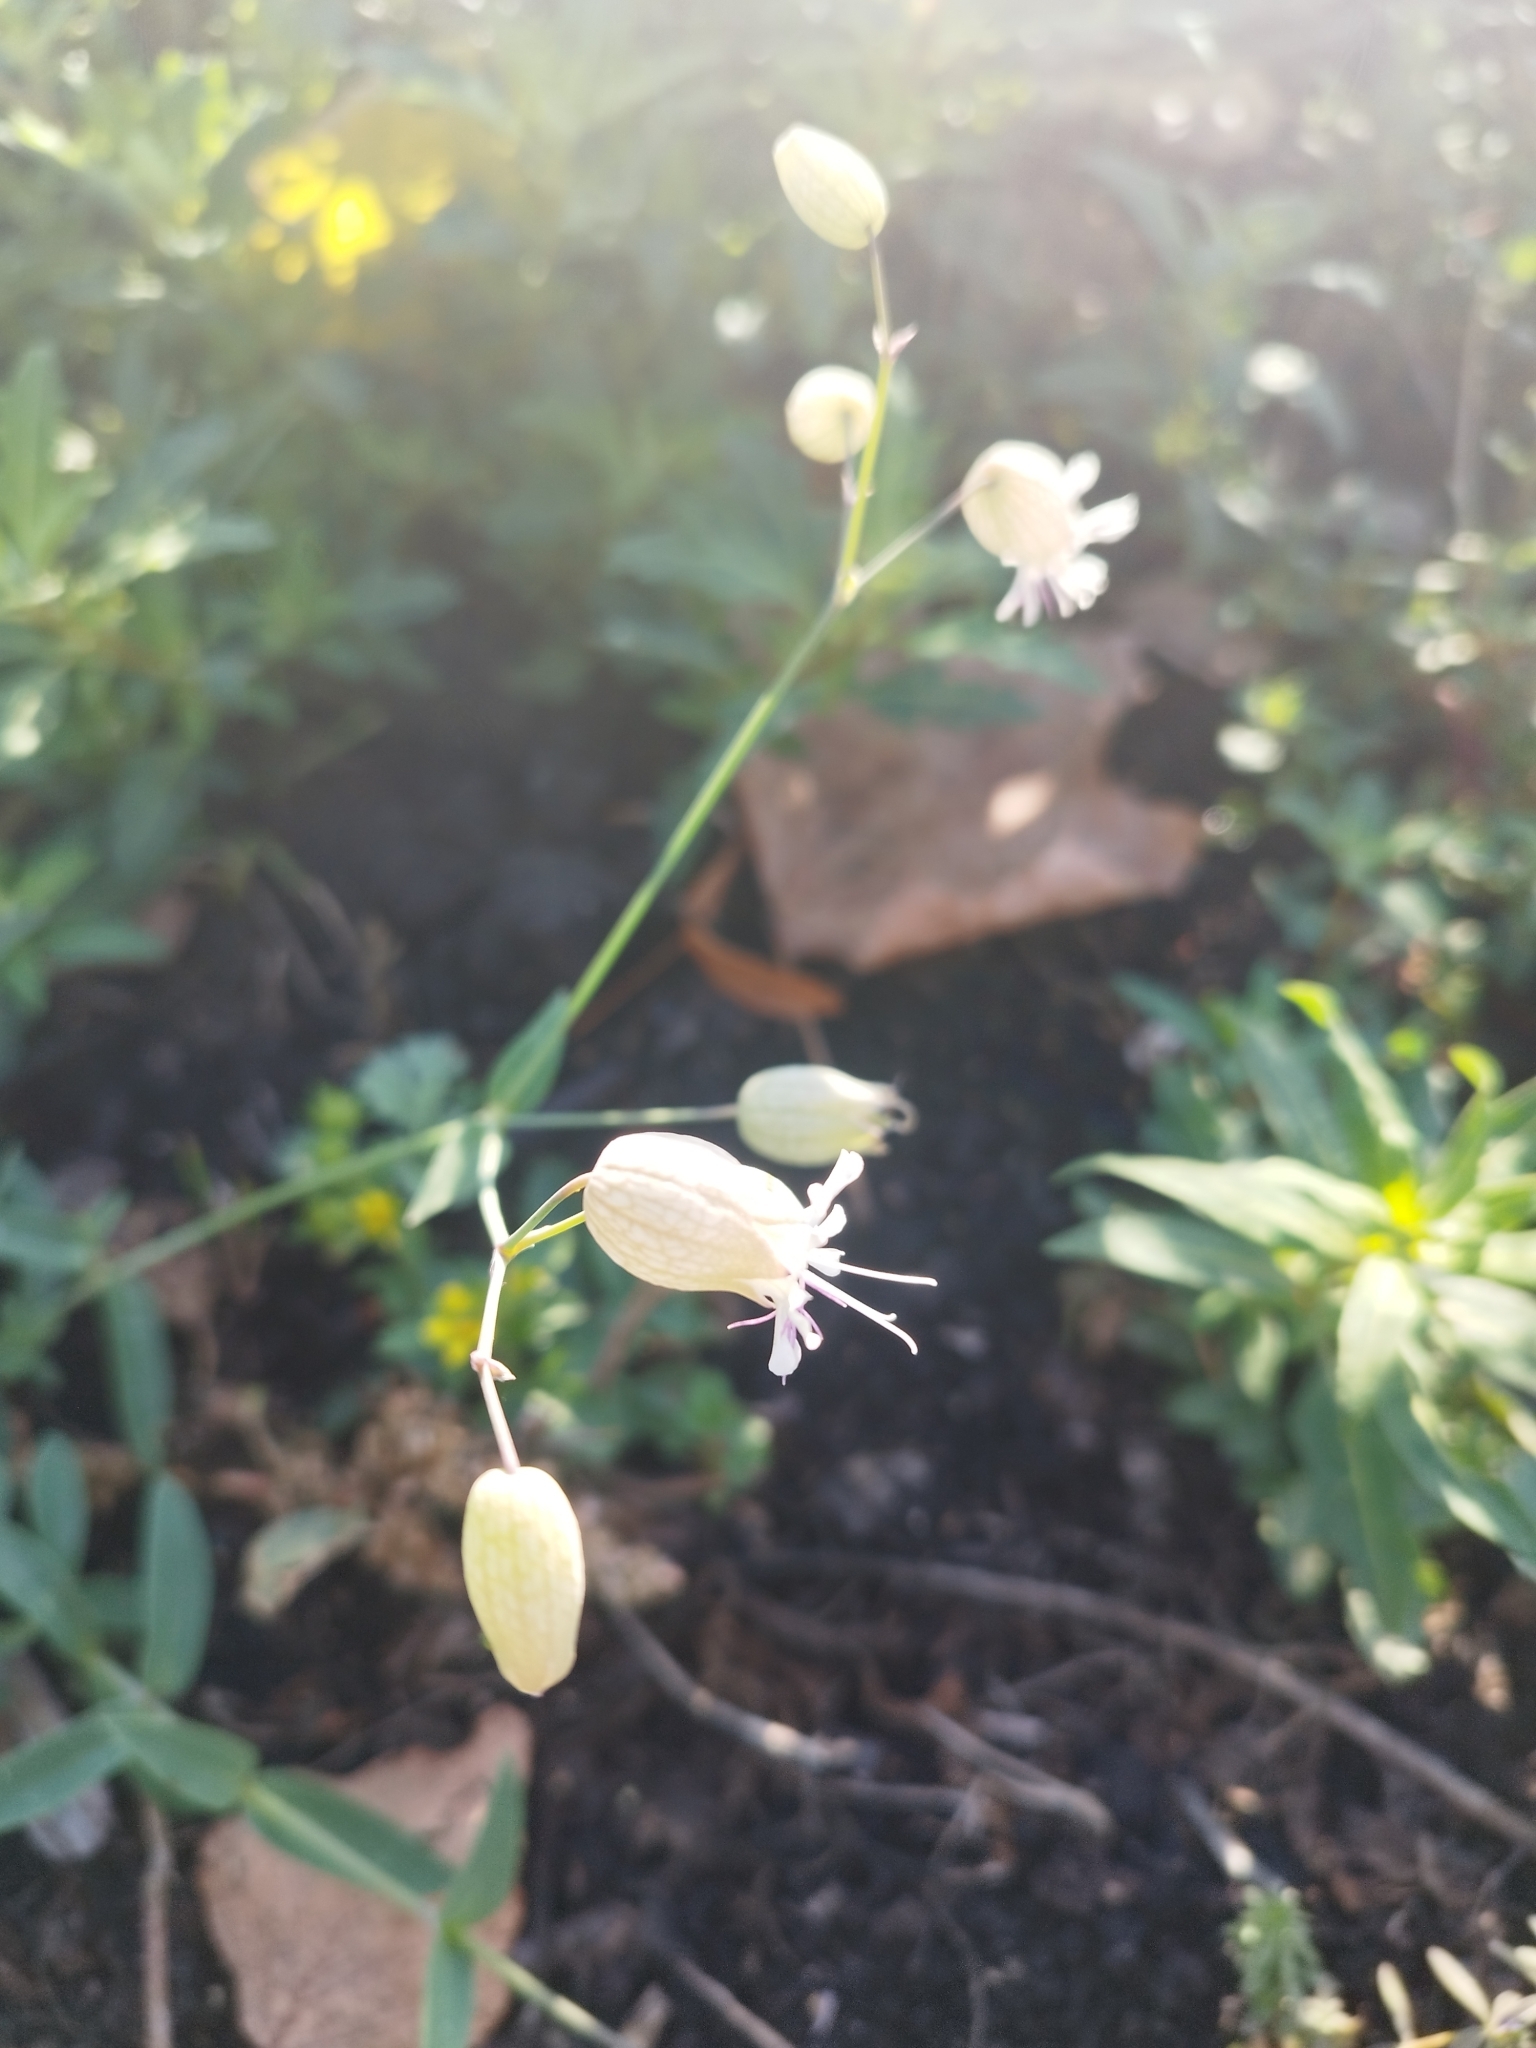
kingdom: Plantae
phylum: Tracheophyta
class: Magnoliopsida
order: Caryophyllales
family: Caryophyllaceae
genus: Silene
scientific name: Silene vulgaris
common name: Bladder campion
